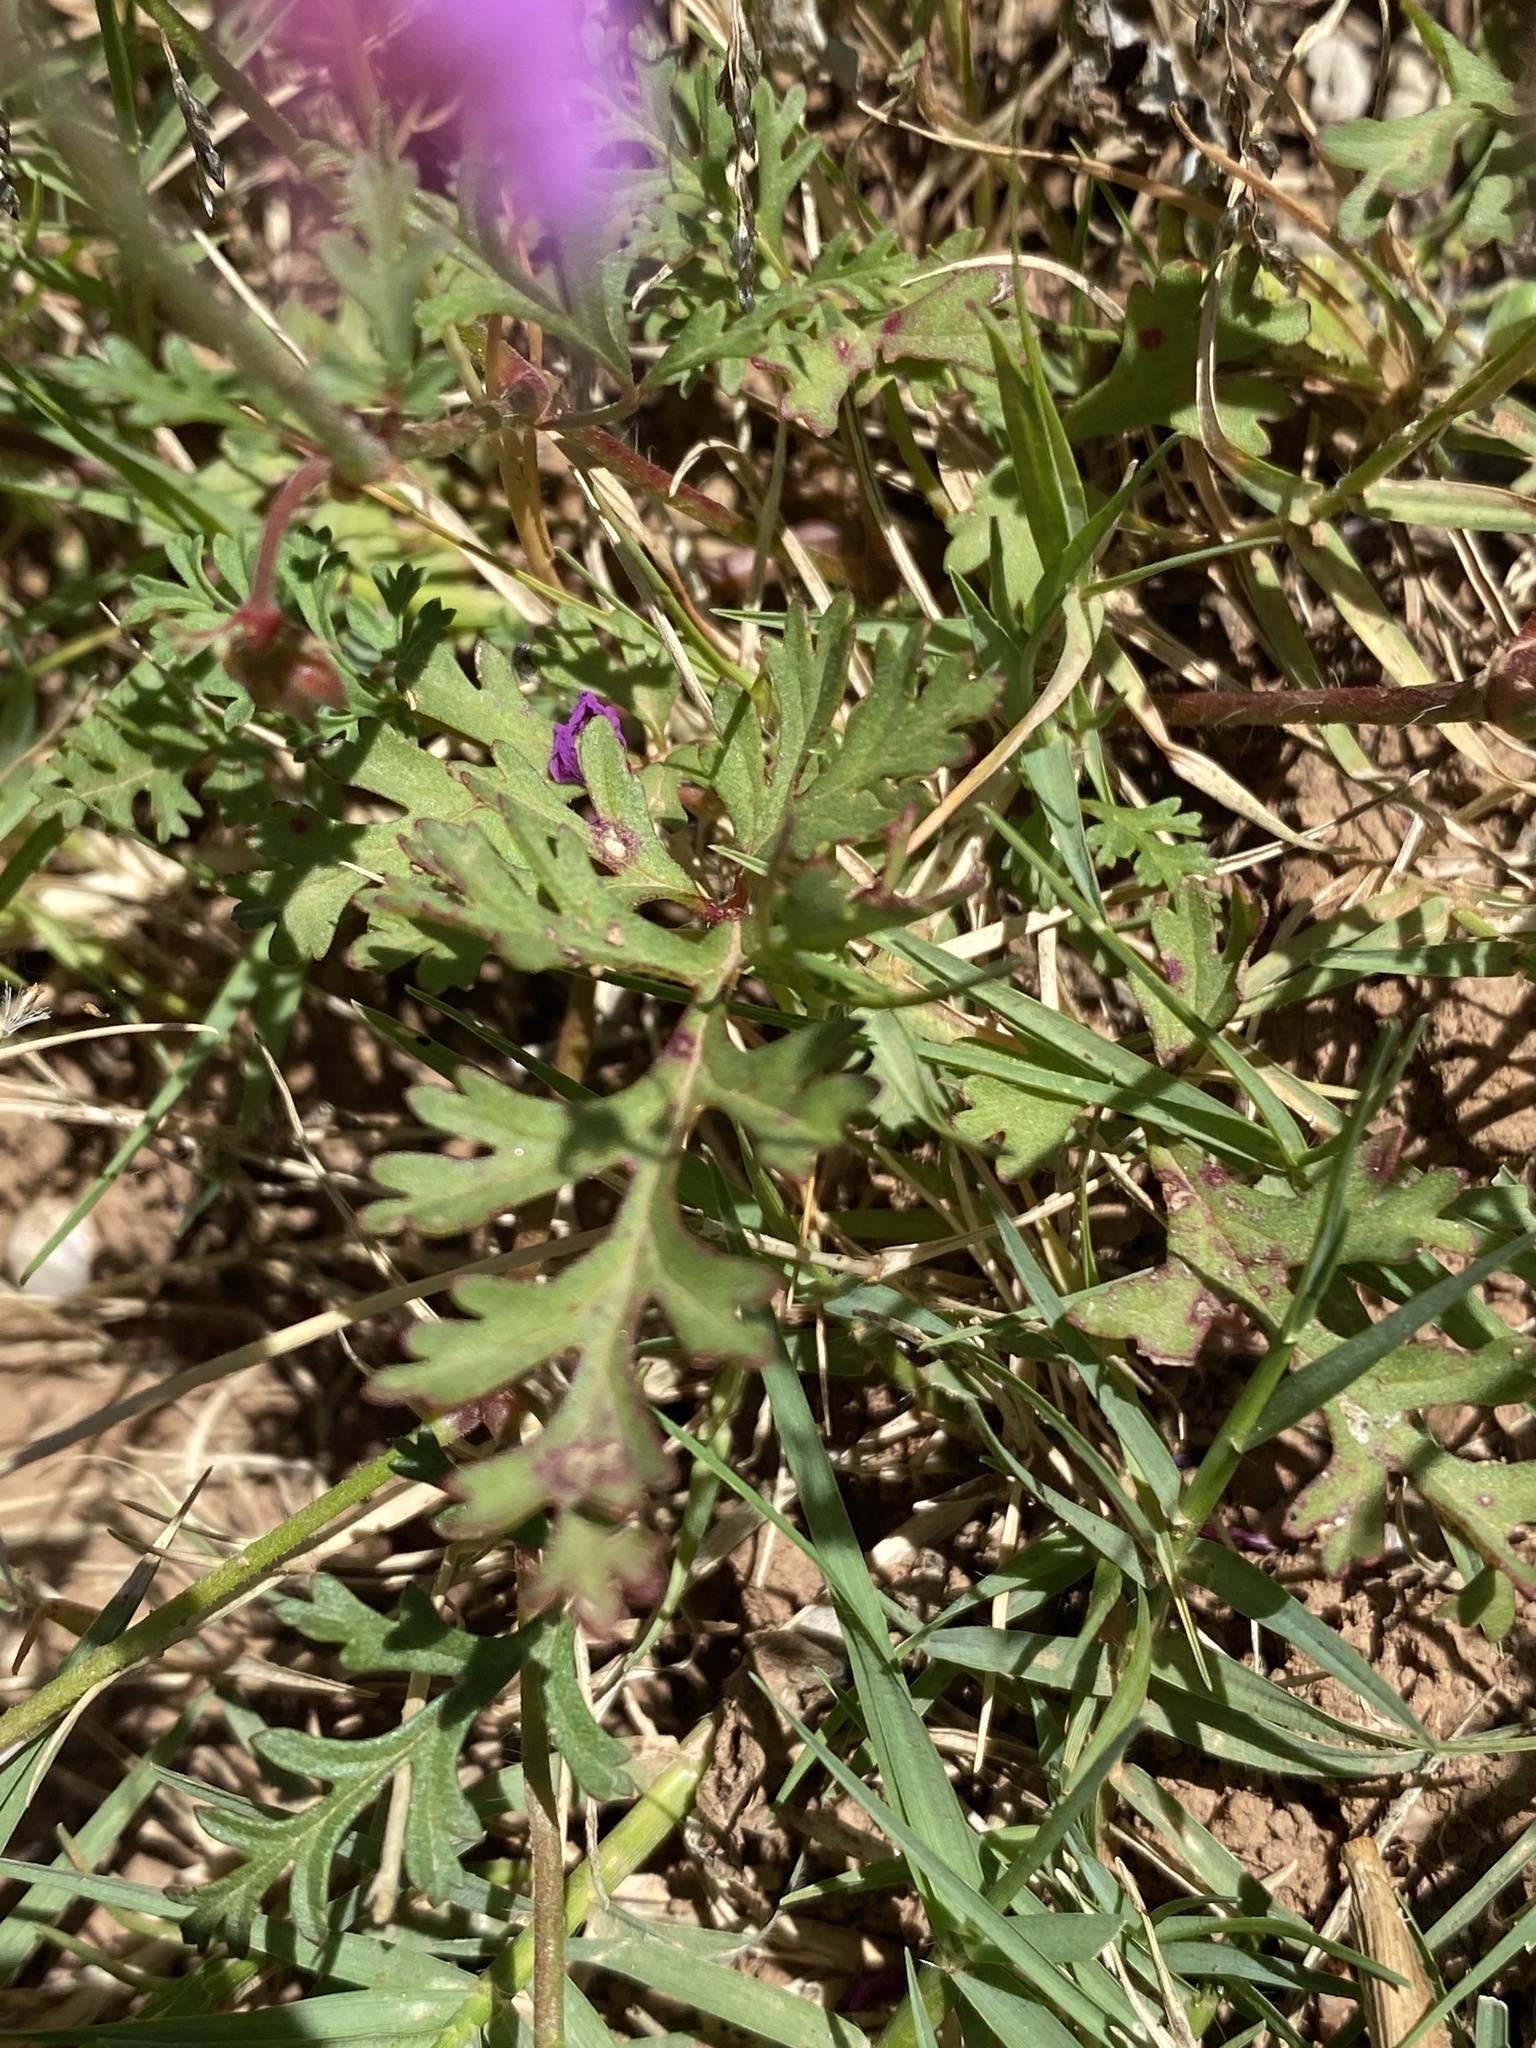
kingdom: Plantae
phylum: Tracheophyta
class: Magnoliopsida
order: Geraniales
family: Geraniaceae
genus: Pelargonium
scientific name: Pelargonium multicaule
